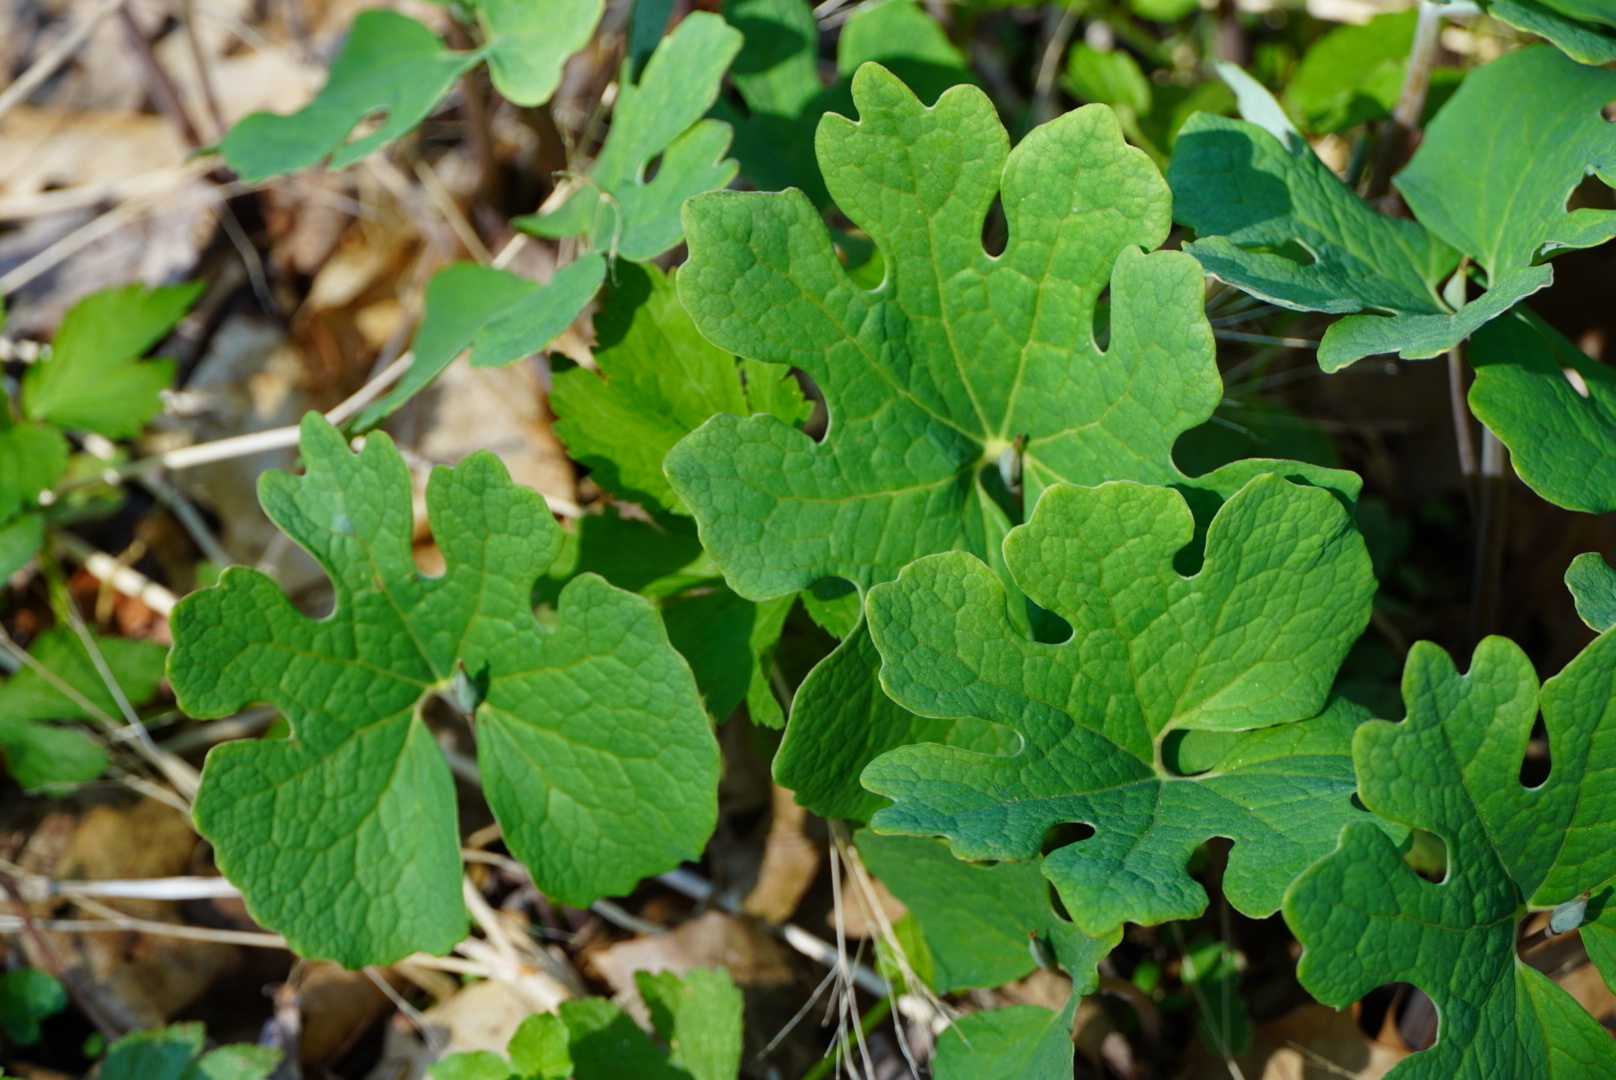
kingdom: Plantae
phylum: Tracheophyta
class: Magnoliopsida
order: Ranunculales
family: Papaveraceae
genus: Sanguinaria
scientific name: Sanguinaria canadensis
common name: Bloodroot
